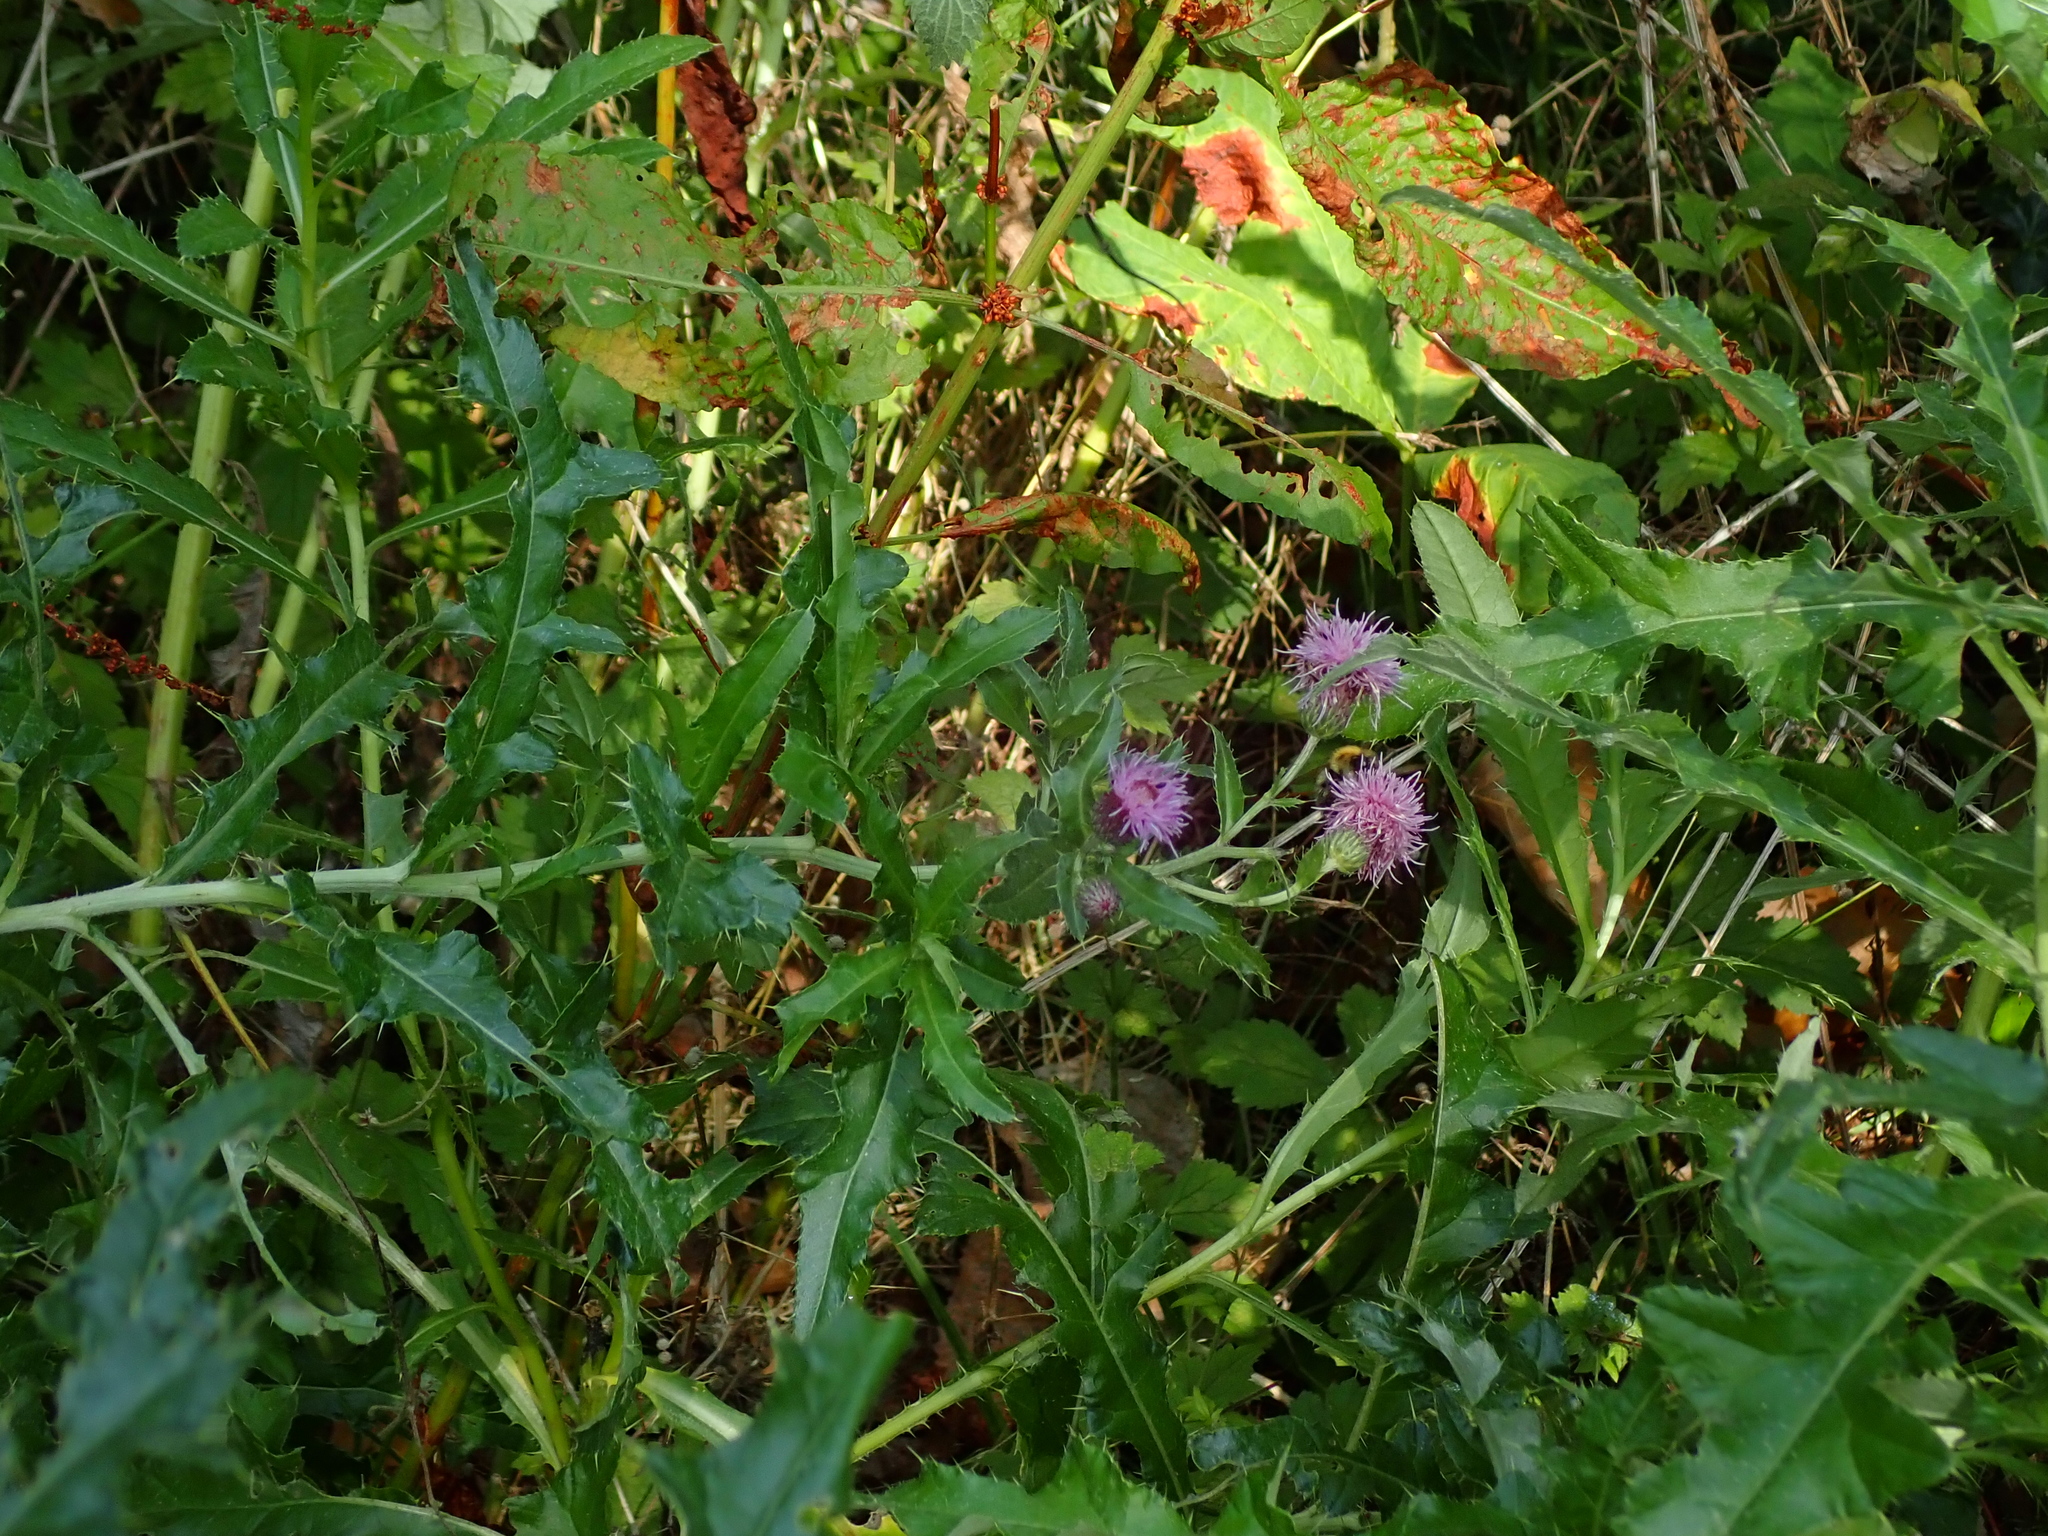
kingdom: Plantae
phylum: Tracheophyta
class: Magnoliopsida
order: Asterales
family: Asteraceae
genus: Cirsium
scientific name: Cirsium arvense
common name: Creeping thistle
